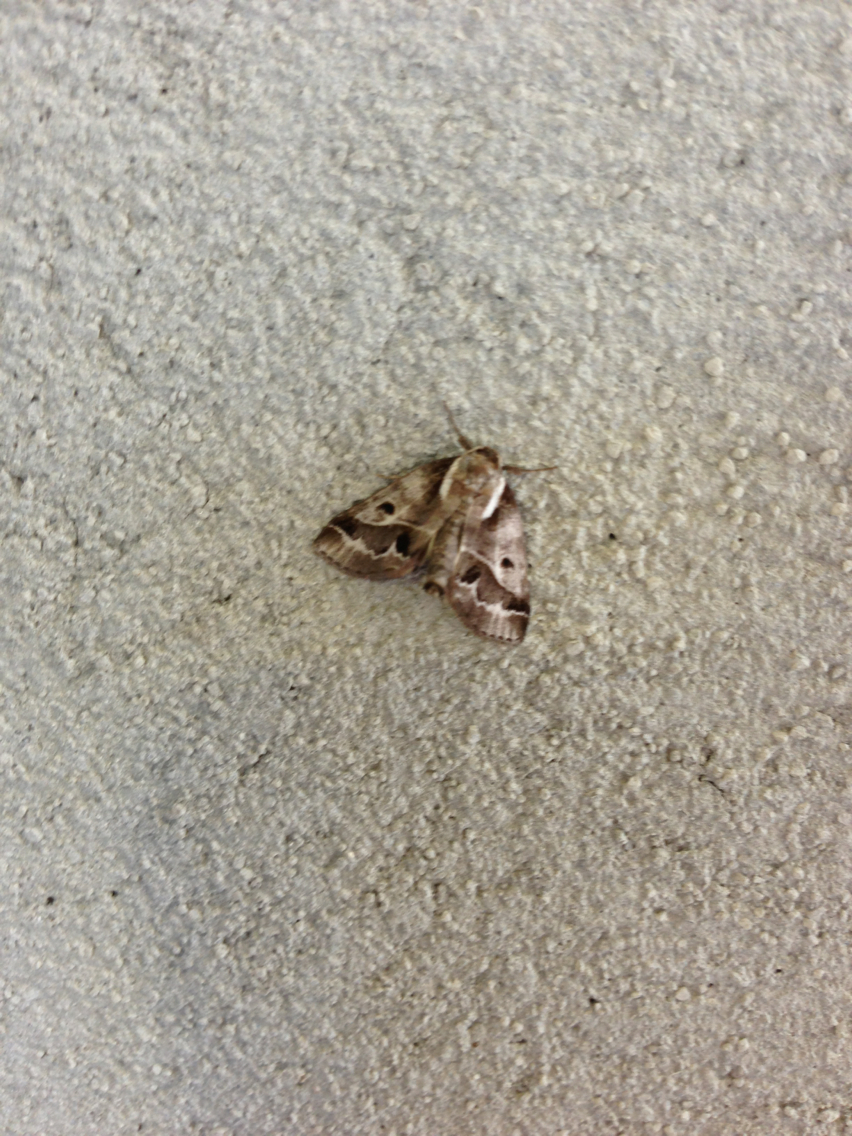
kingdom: Animalia
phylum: Arthropoda
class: Insecta
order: Lepidoptera
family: Nolidae
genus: Baileya
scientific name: Baileya doubledayi
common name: Doubleday's baileya moth
